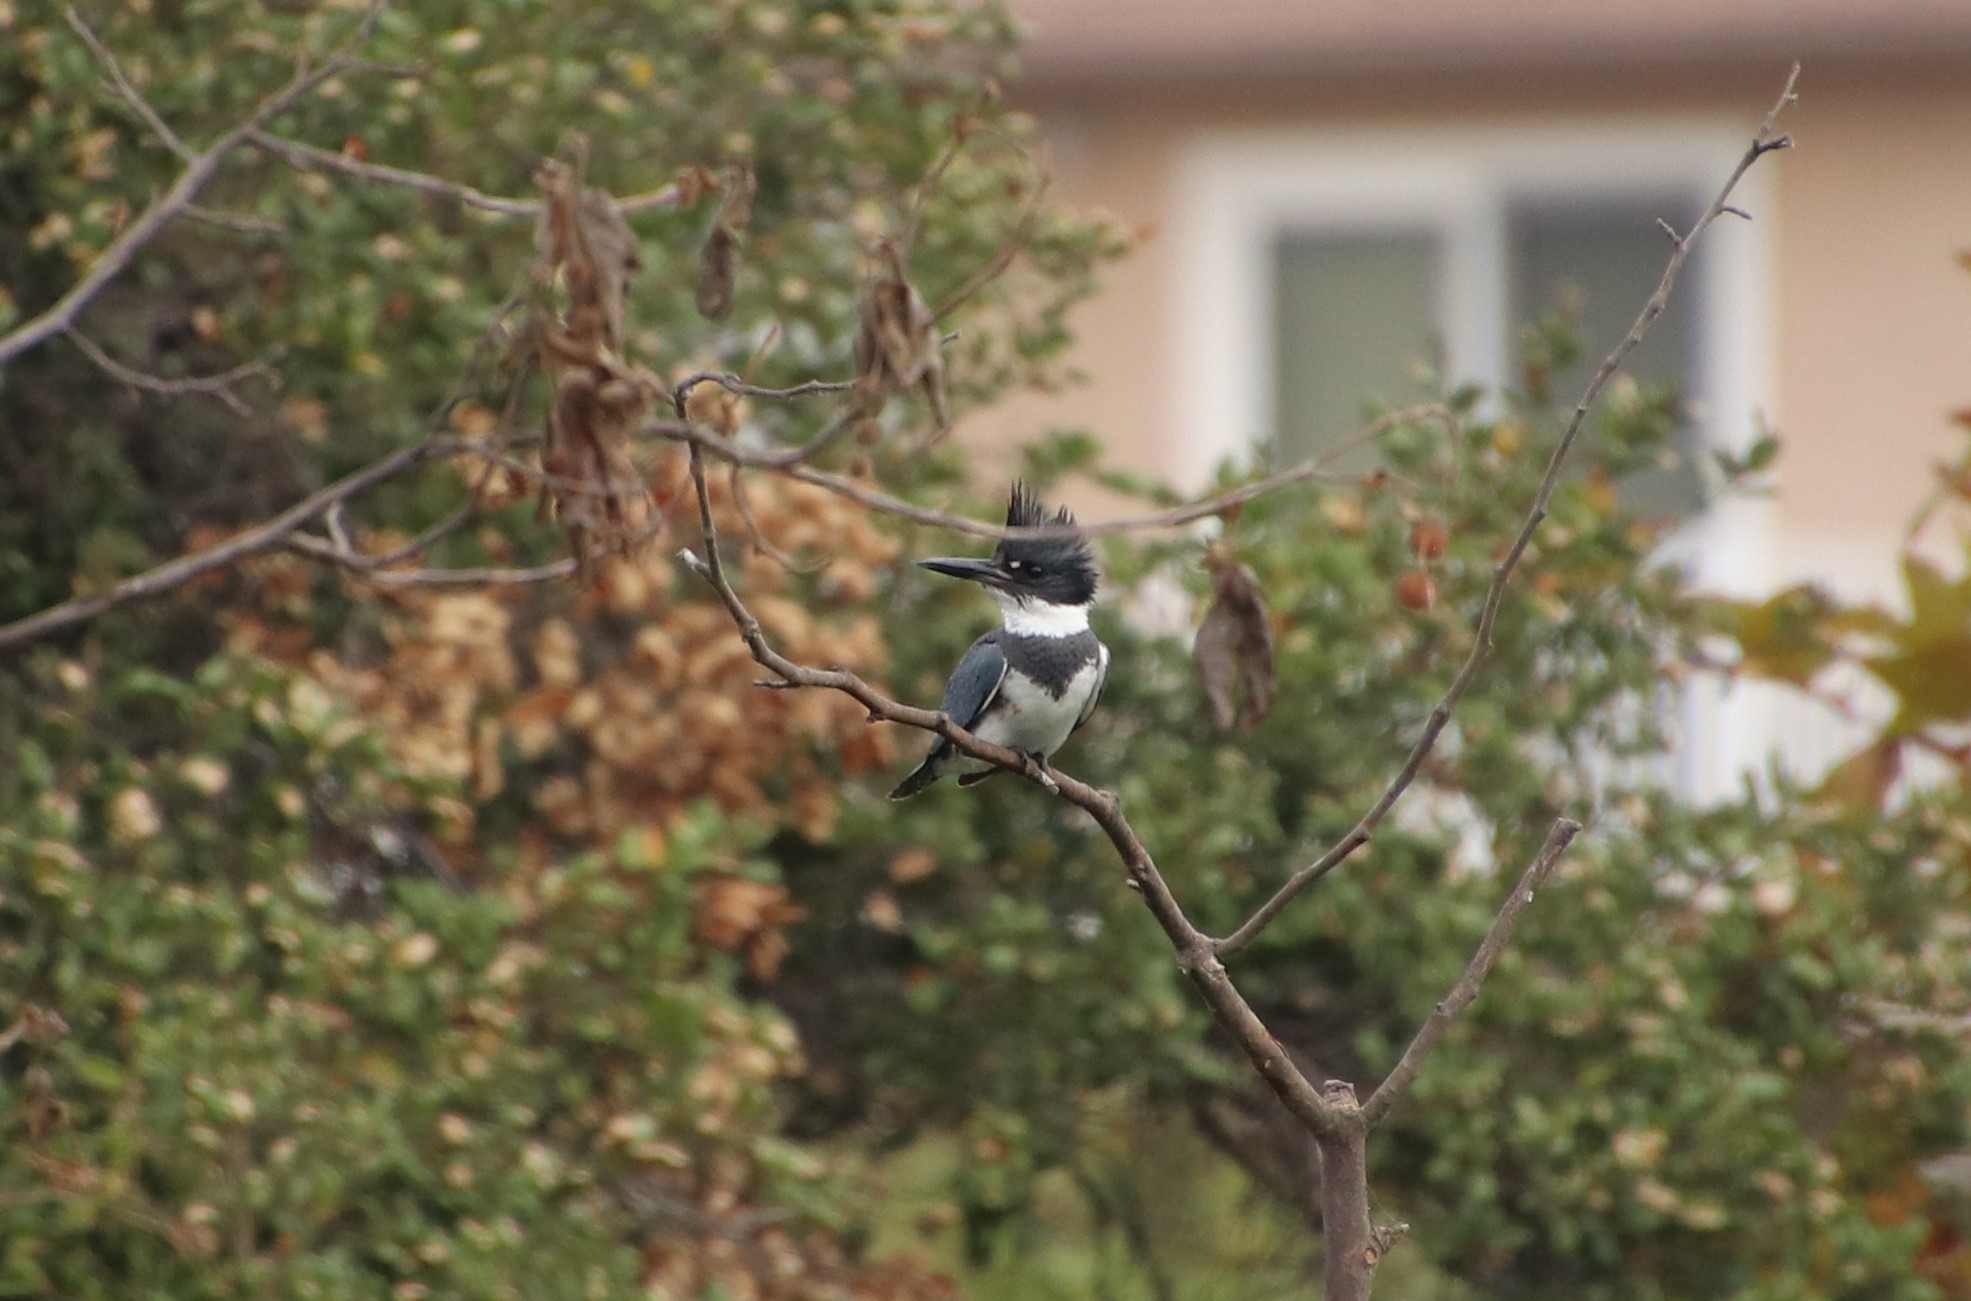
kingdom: Animalia
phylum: Chordata
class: Aves
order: Coraciiformes
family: Alcedinidae
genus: Megaceryle
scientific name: Megaceryle alcyon
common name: Belted kingfisher
